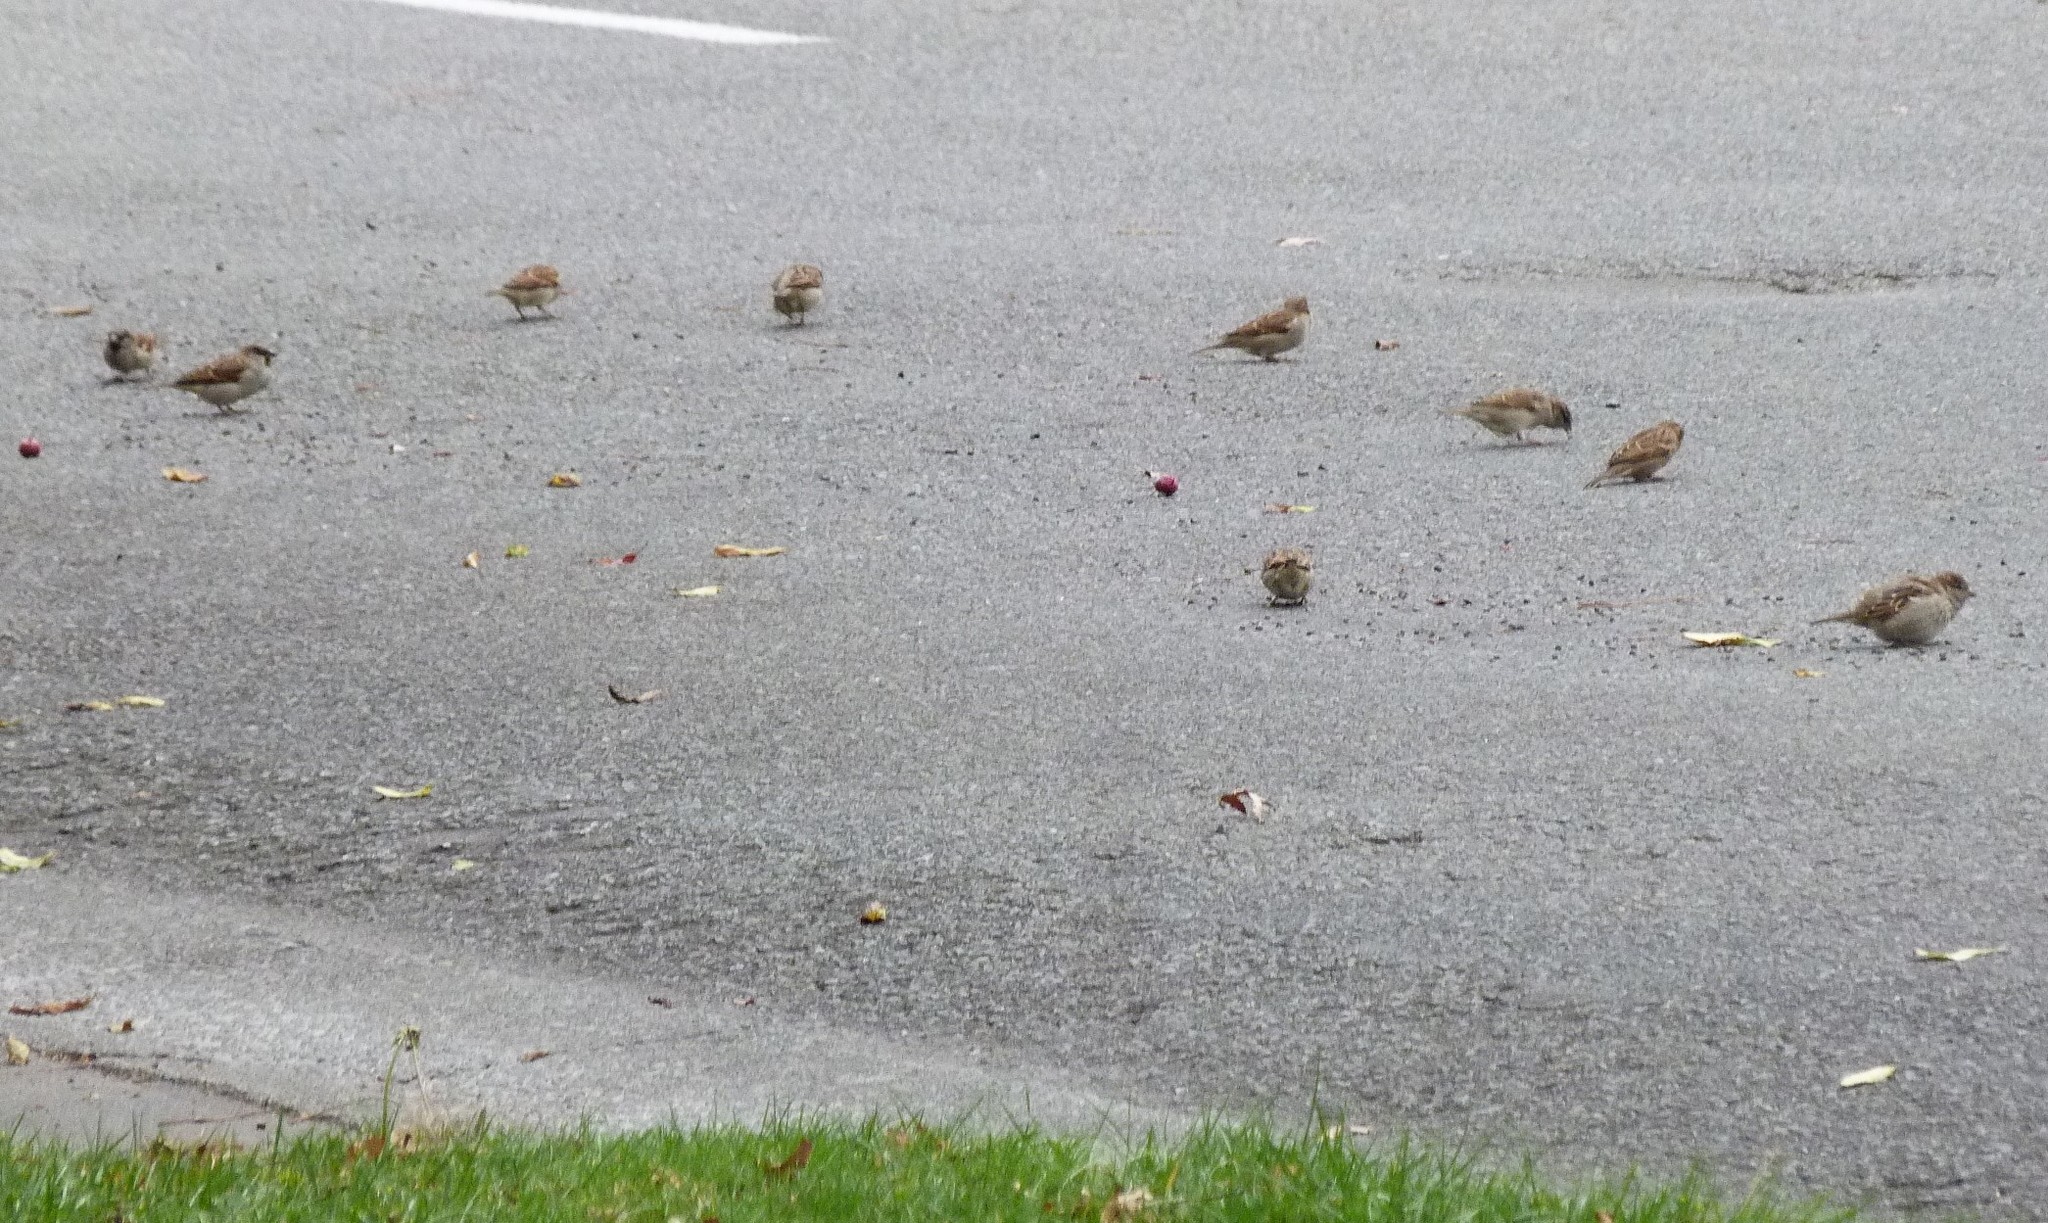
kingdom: Animalia
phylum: Chordata
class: Aves
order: Passeriformes
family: Passeridae
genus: Passer
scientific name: Passer domesticus
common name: House sparrow
